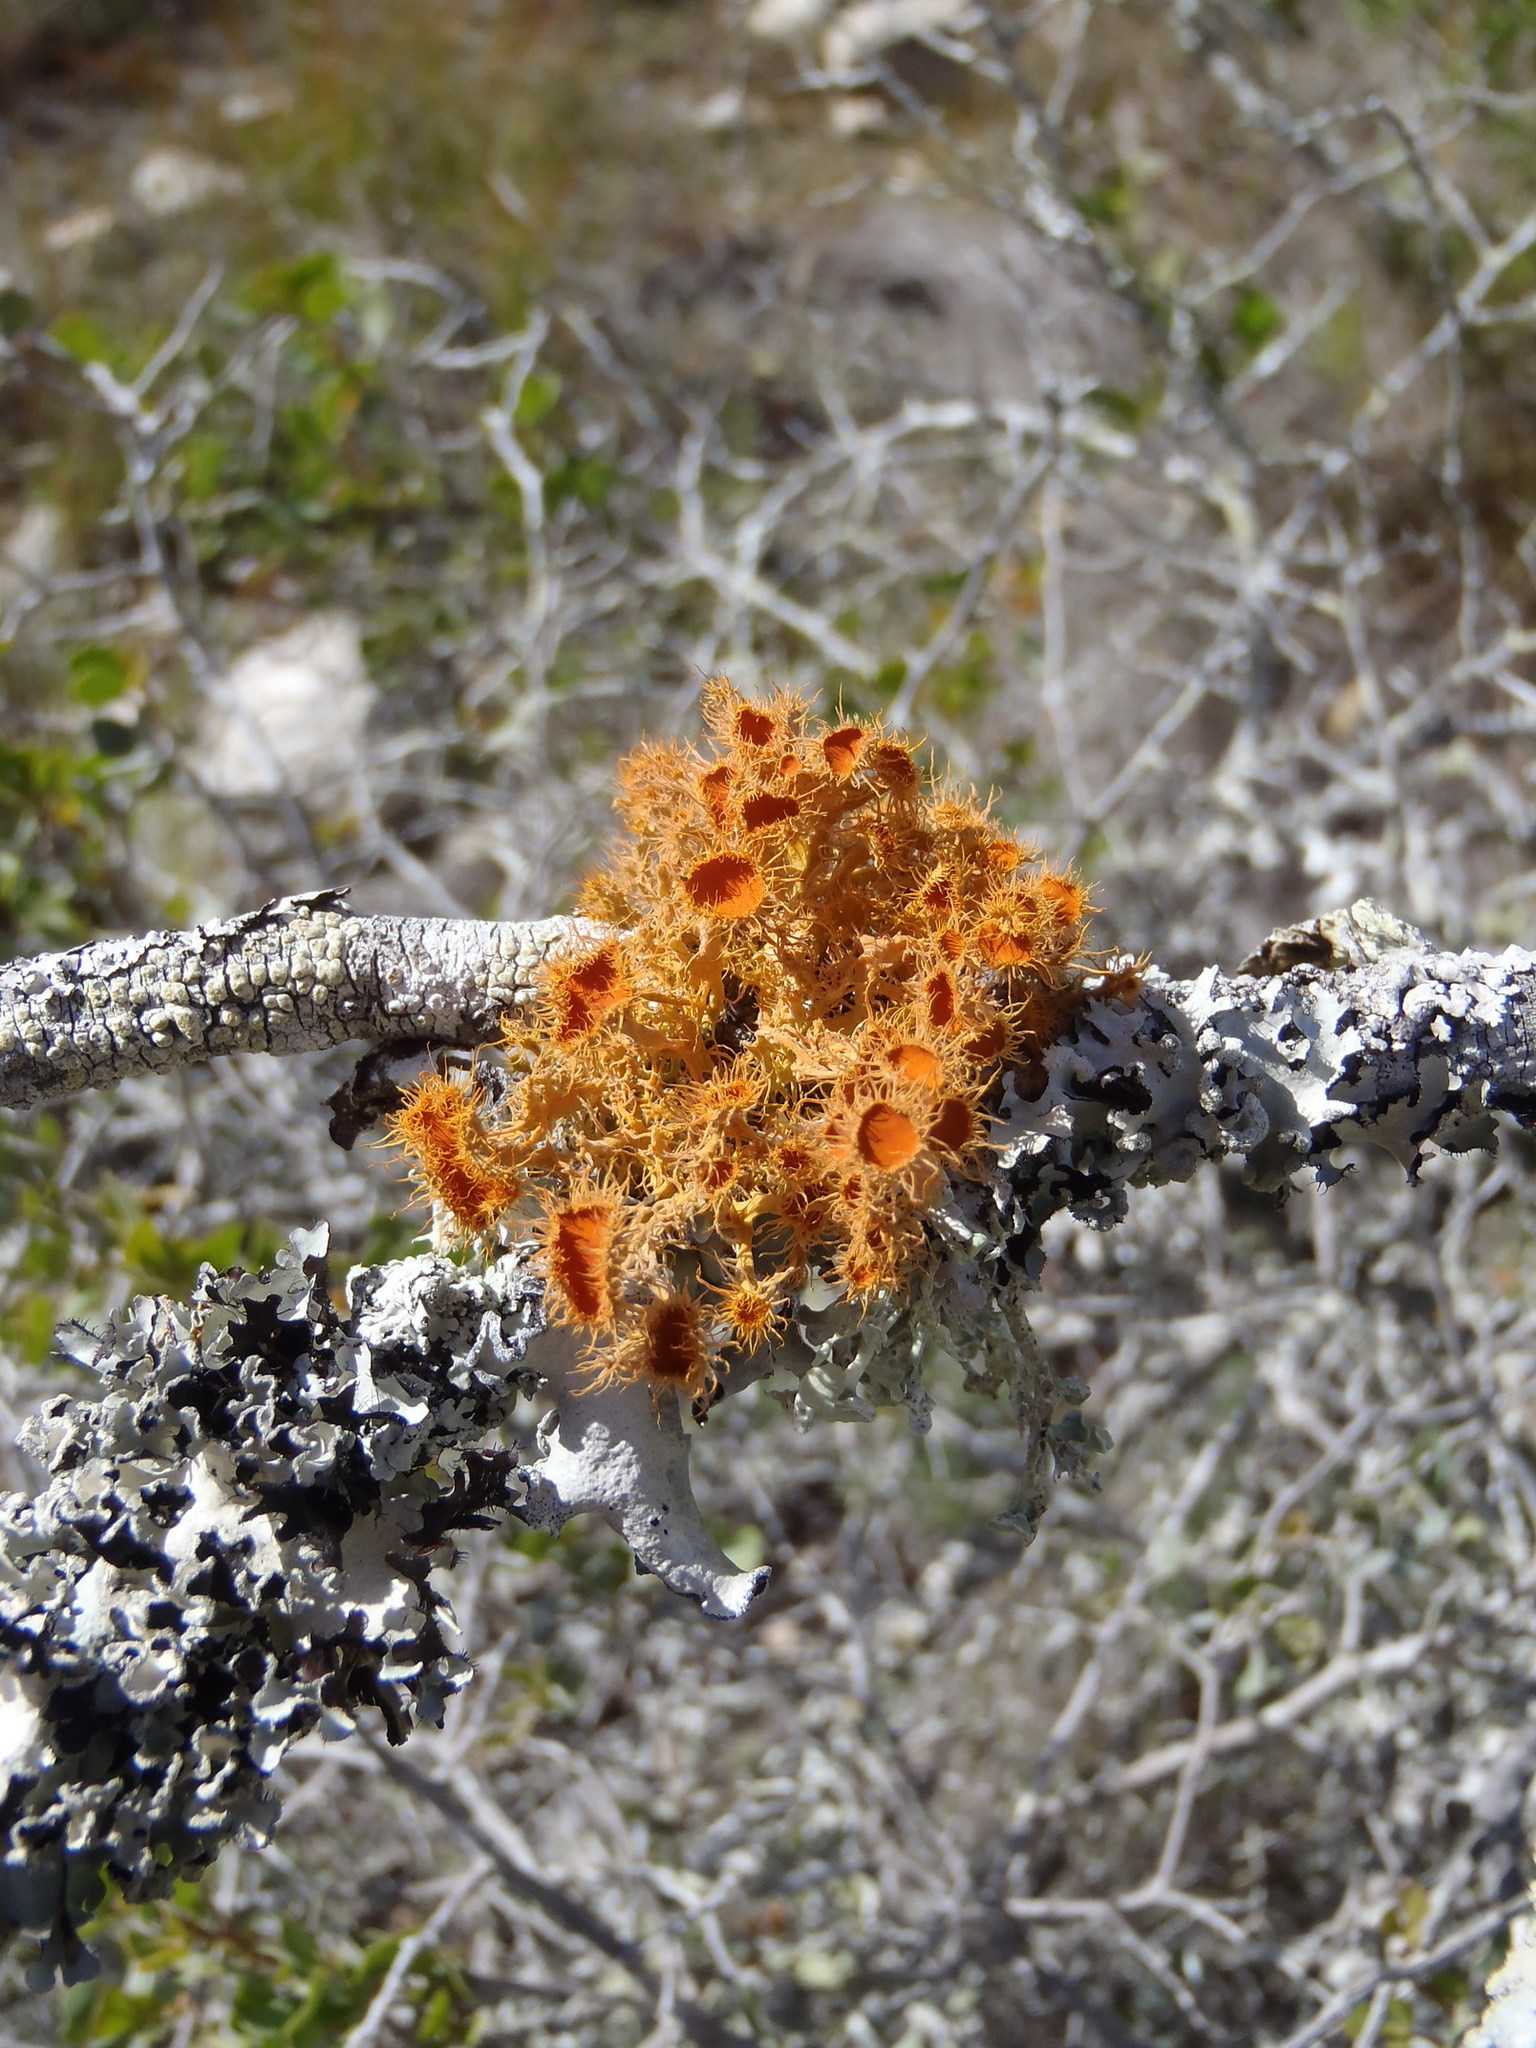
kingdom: Fungi
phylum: Ascomycota
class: Lecanoromycetes
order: Teloschistales
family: Teloschistaceae
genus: Teloschistes
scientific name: Teloschistes puber
